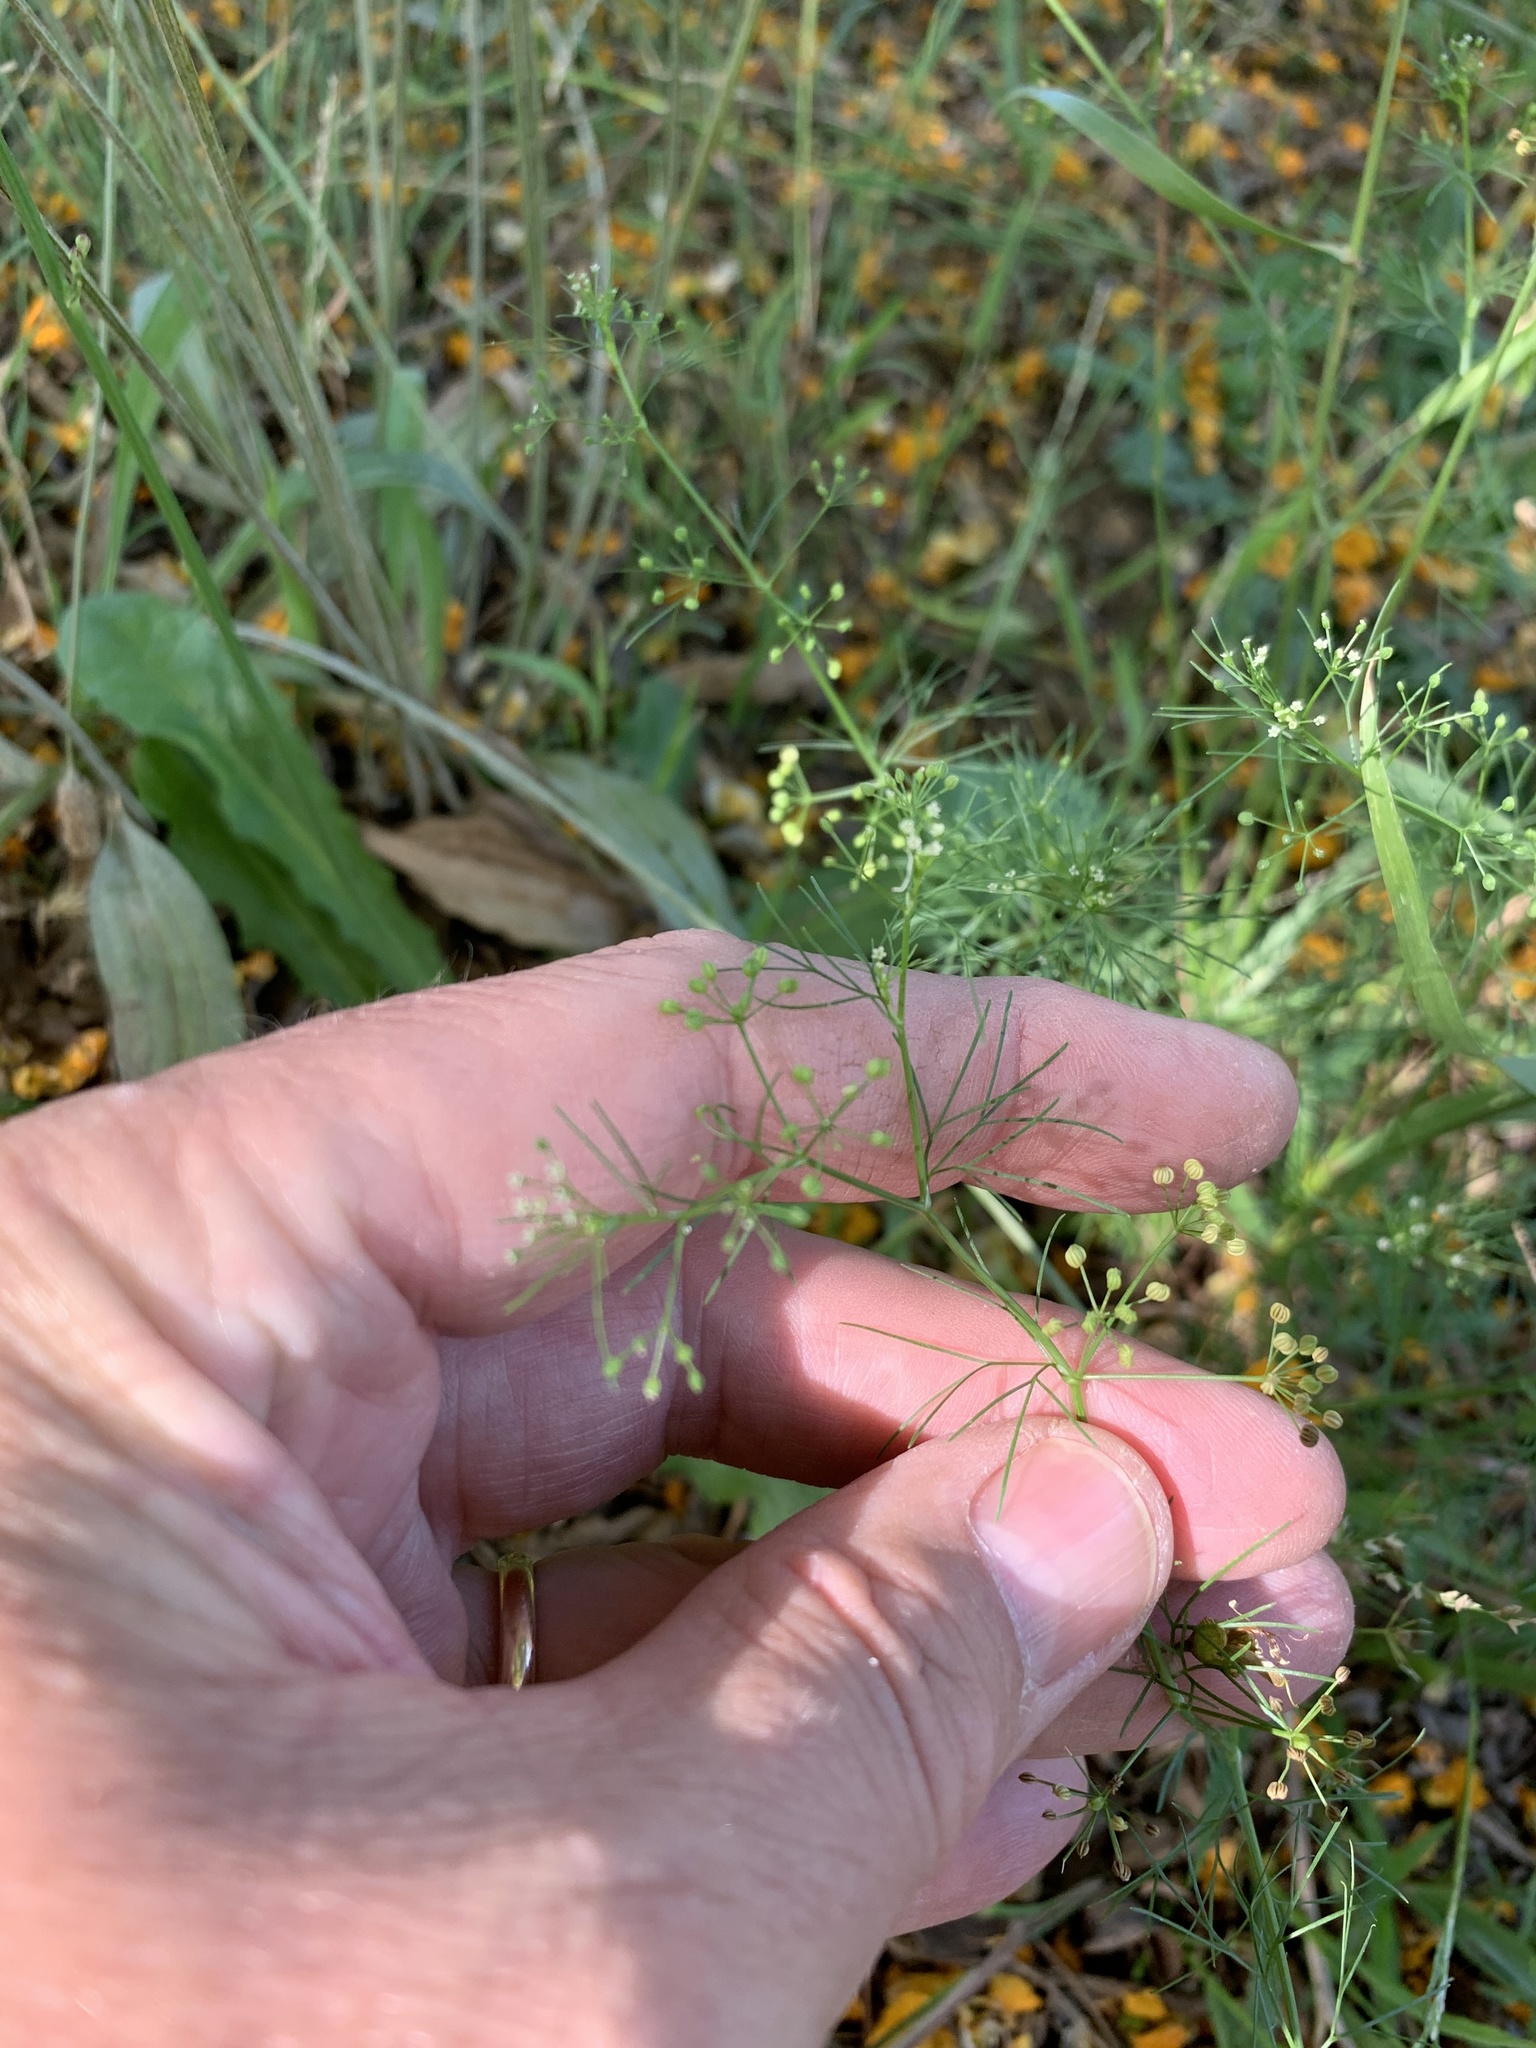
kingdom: Plantae
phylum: Tracheophyta
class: Magnoliopsida
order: Apiales
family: Apiaceae
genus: Cyclospermum
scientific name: Cyclospermum leptophyllum
